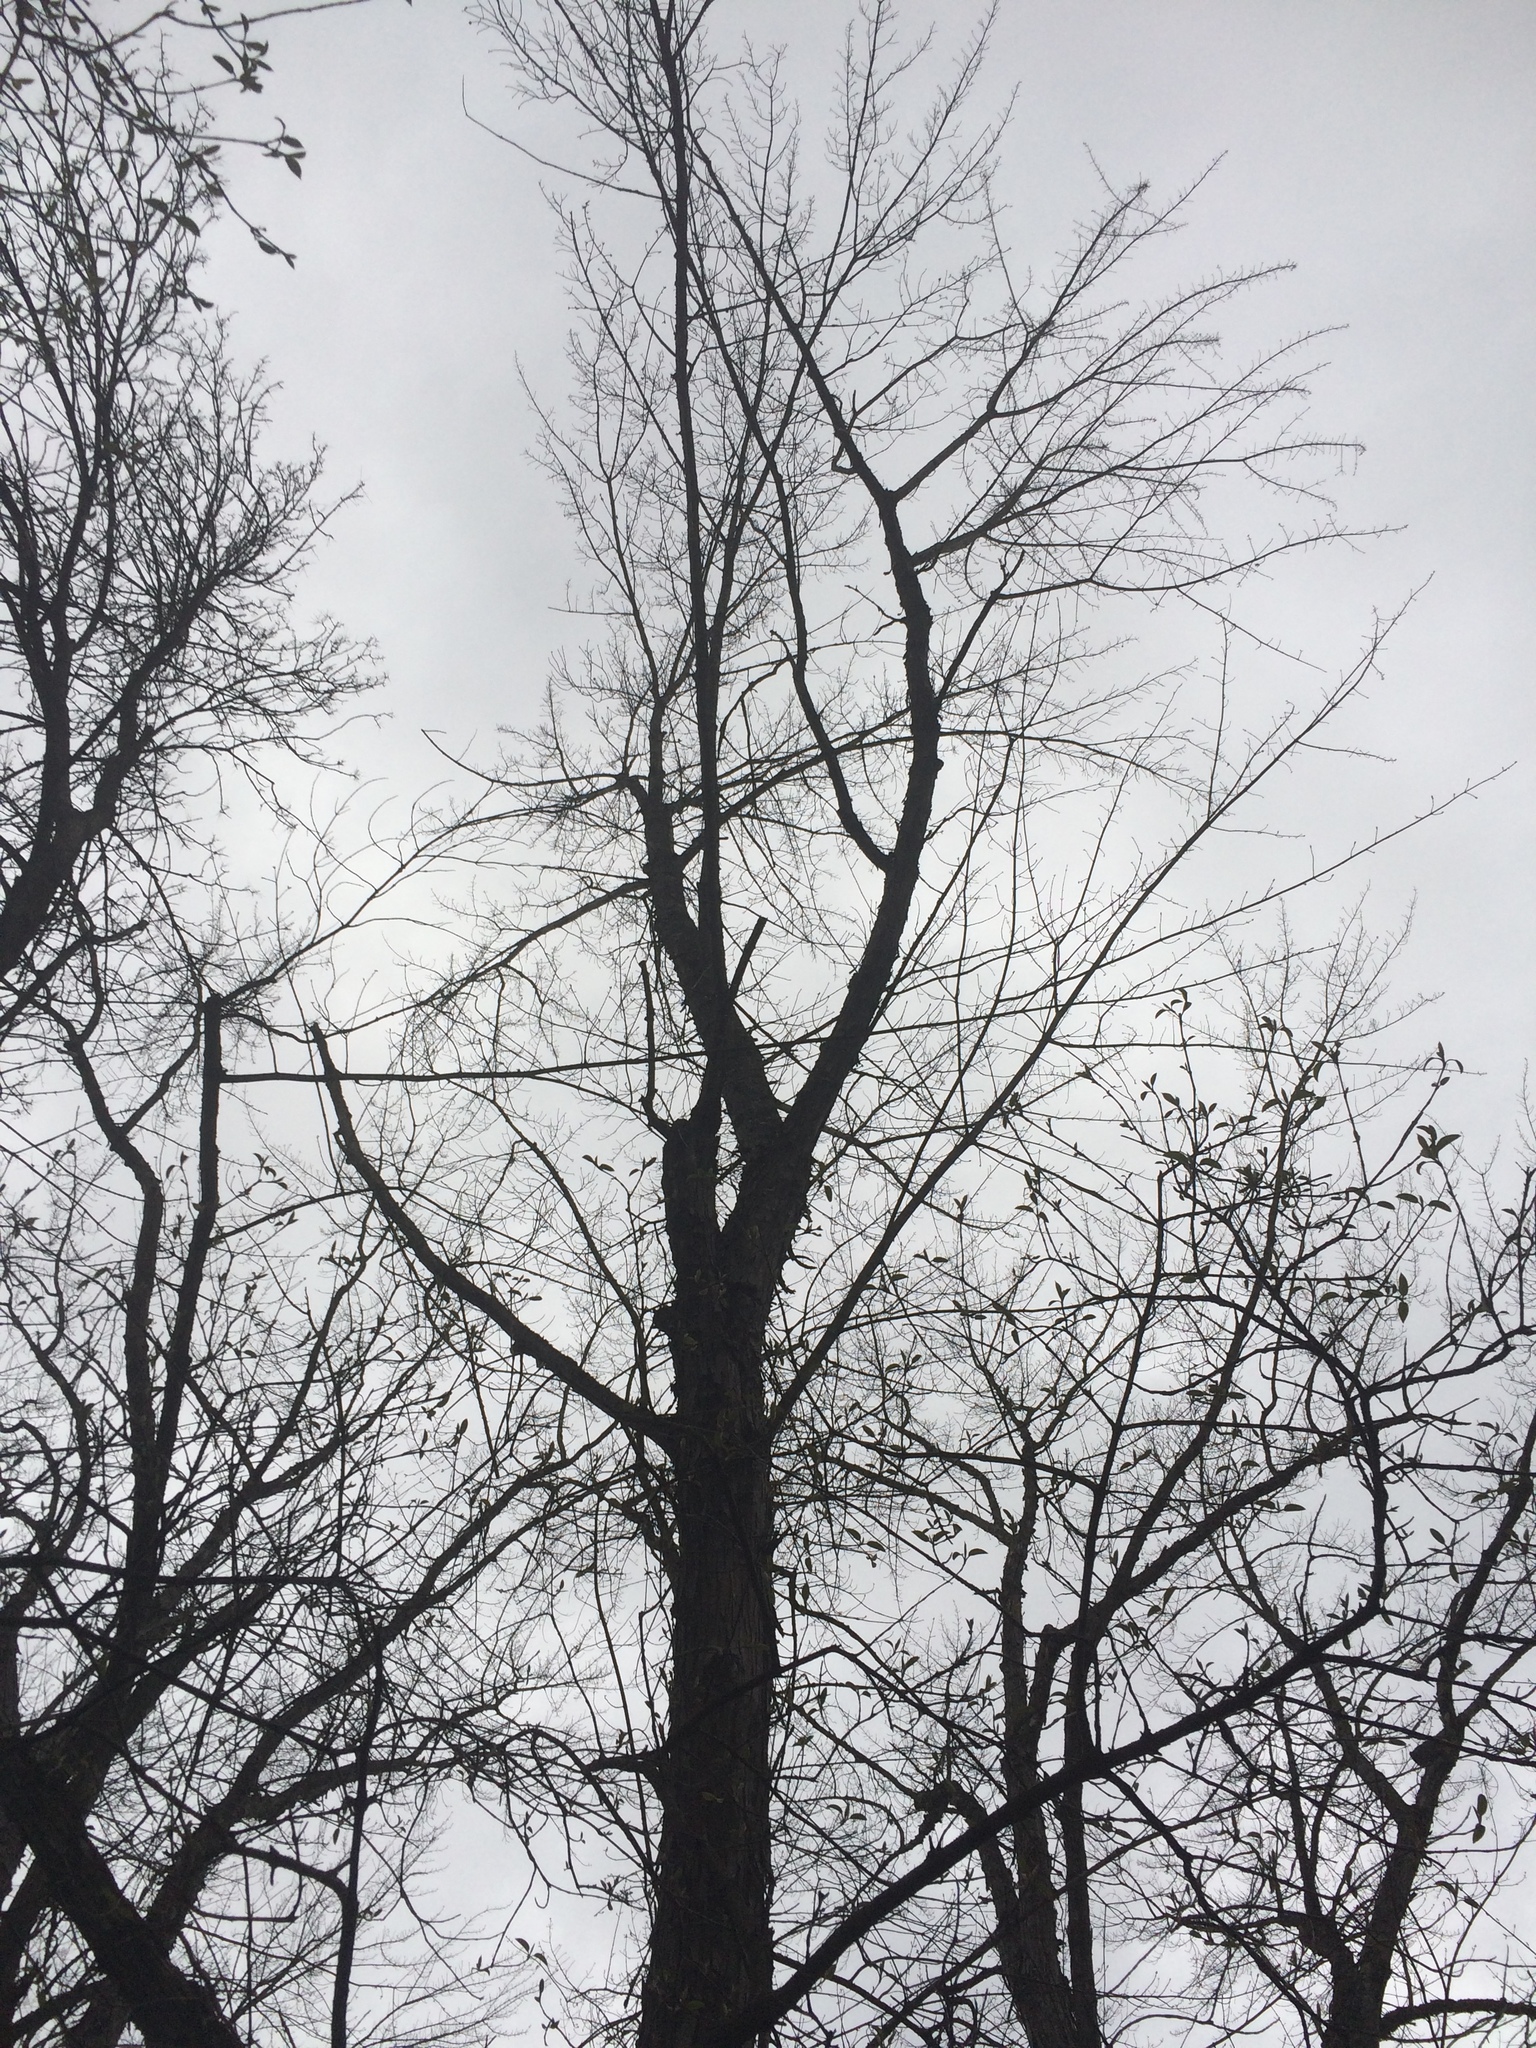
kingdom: Plantae
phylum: Tracheophyta
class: Magnoliopsida
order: Sapindales
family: Sapindaceae
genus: Acer
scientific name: Acer saccharinum
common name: Silver maple
